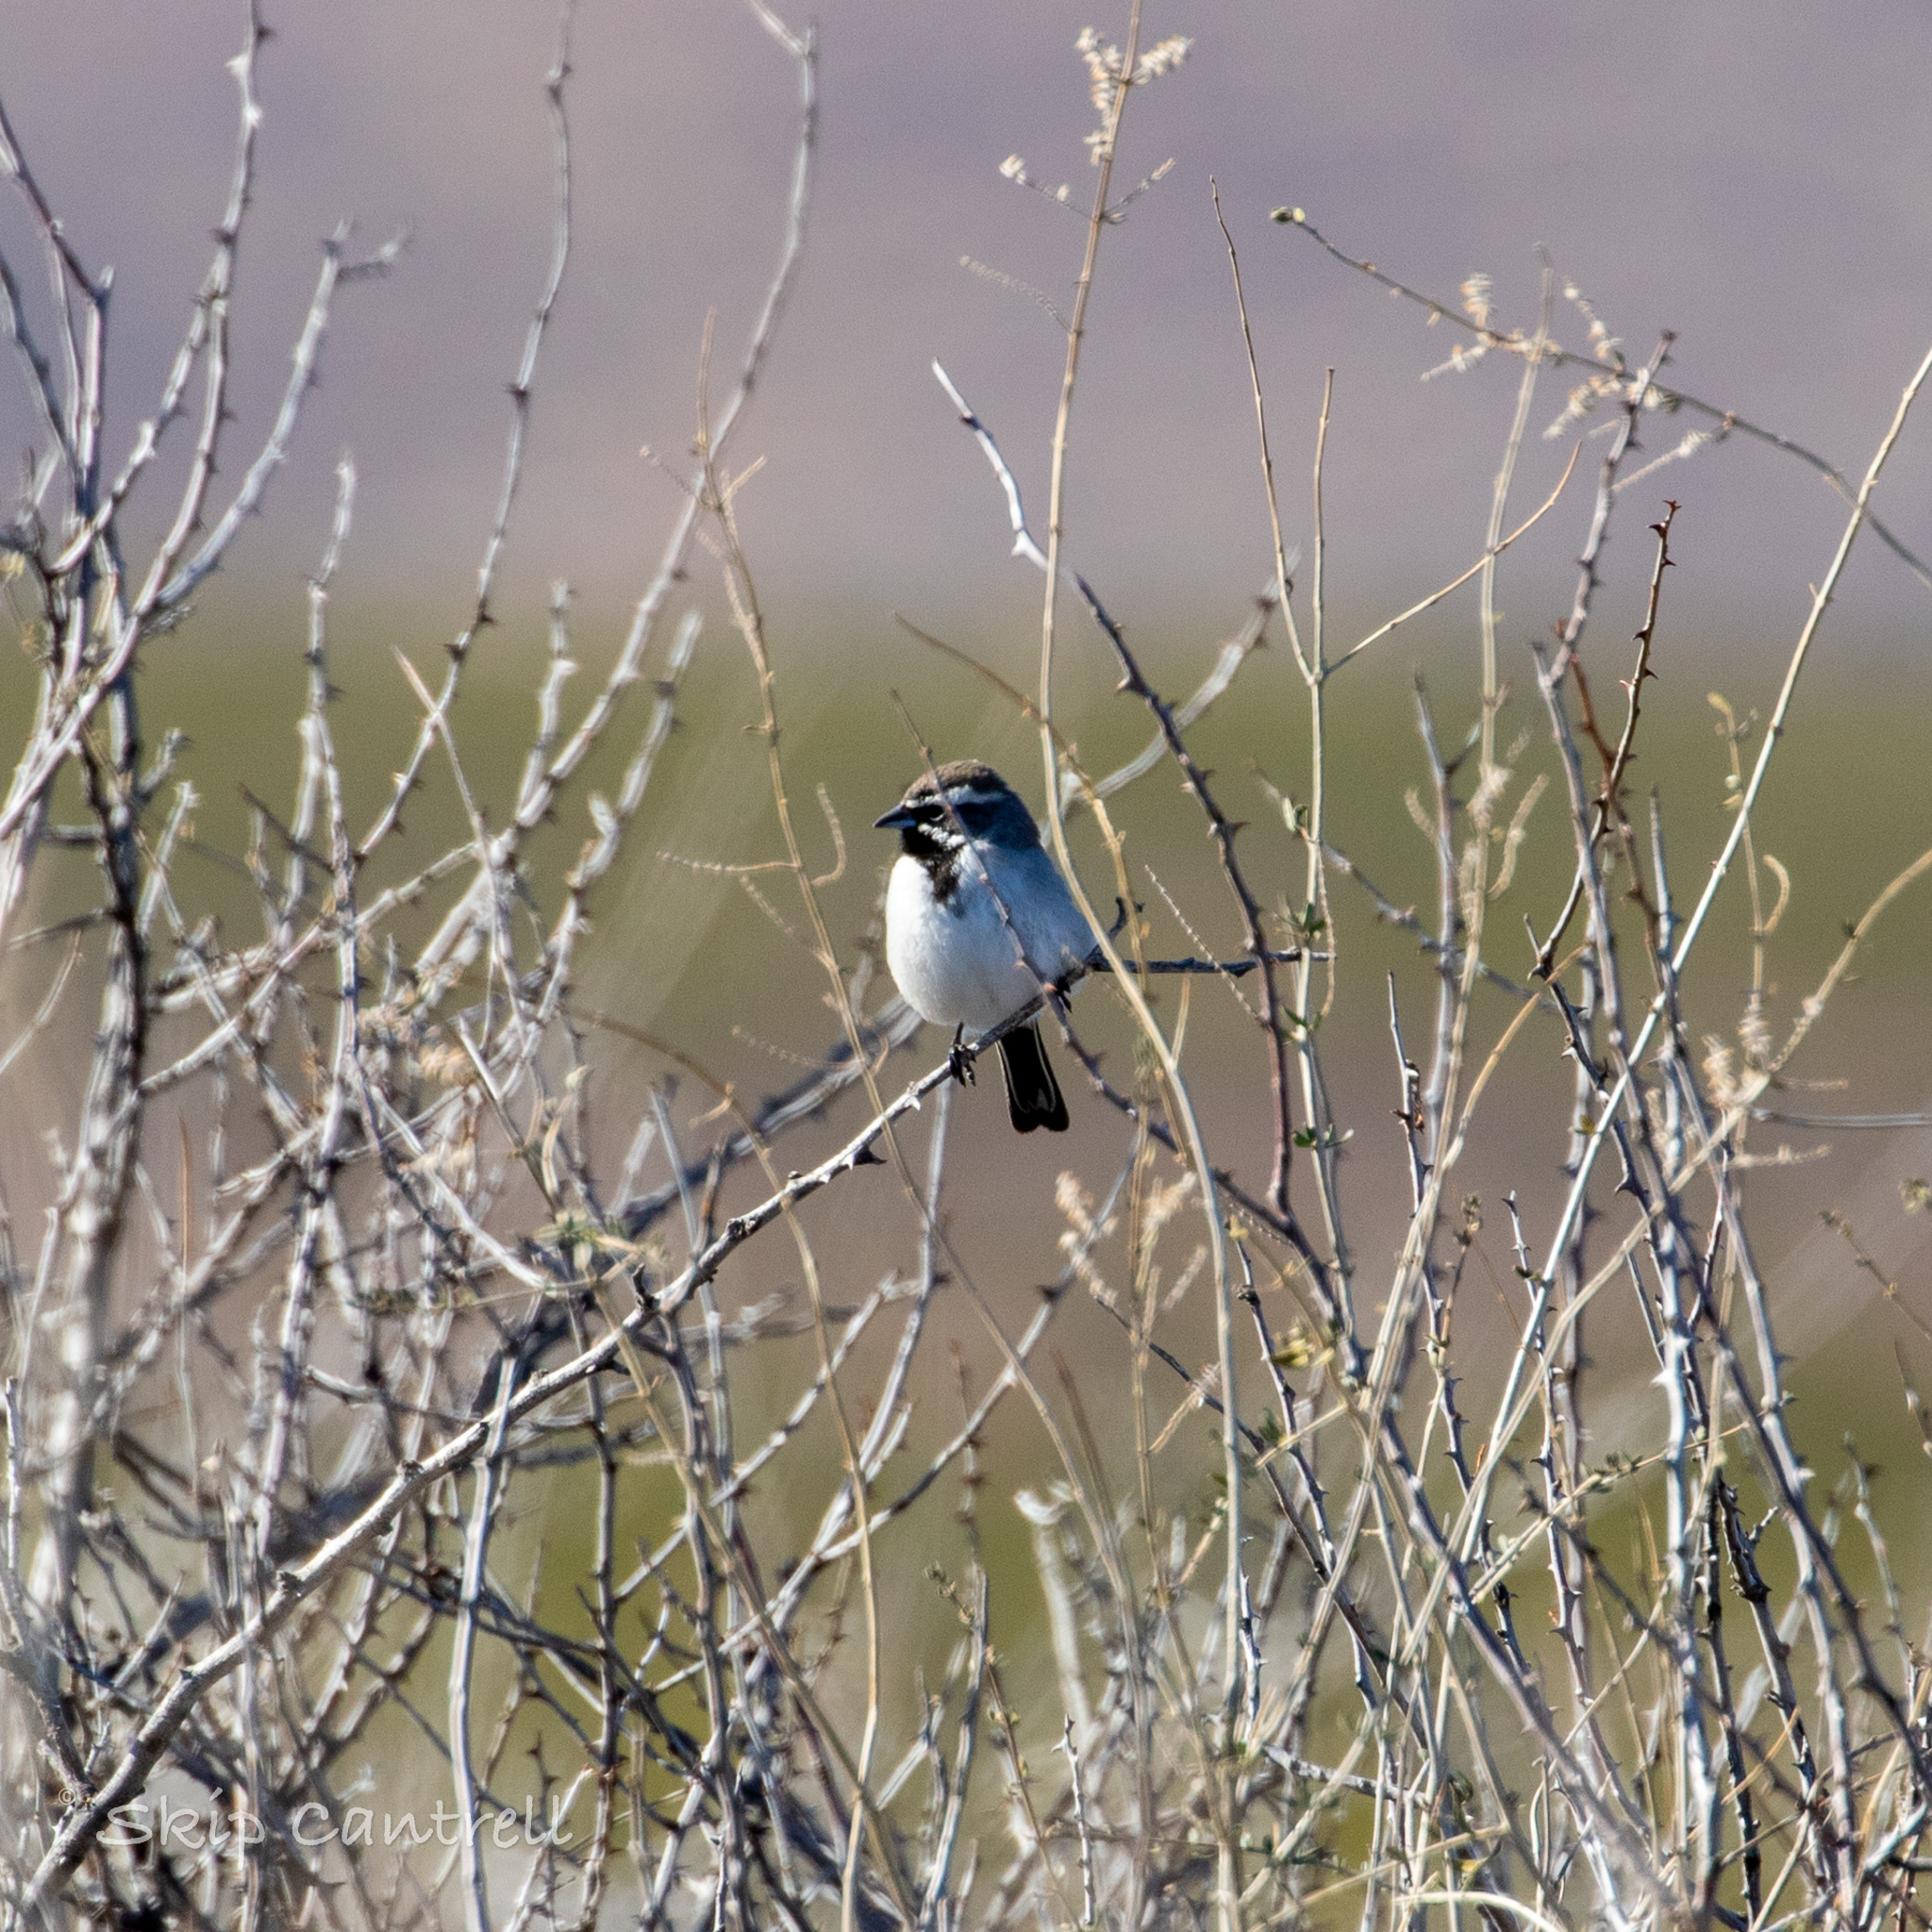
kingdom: Animalia
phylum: Chordata
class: Aves
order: Passeriformes
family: Passerellidae
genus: Amphispiza
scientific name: Amphispiza bilineata
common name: Black-throated sparrow
